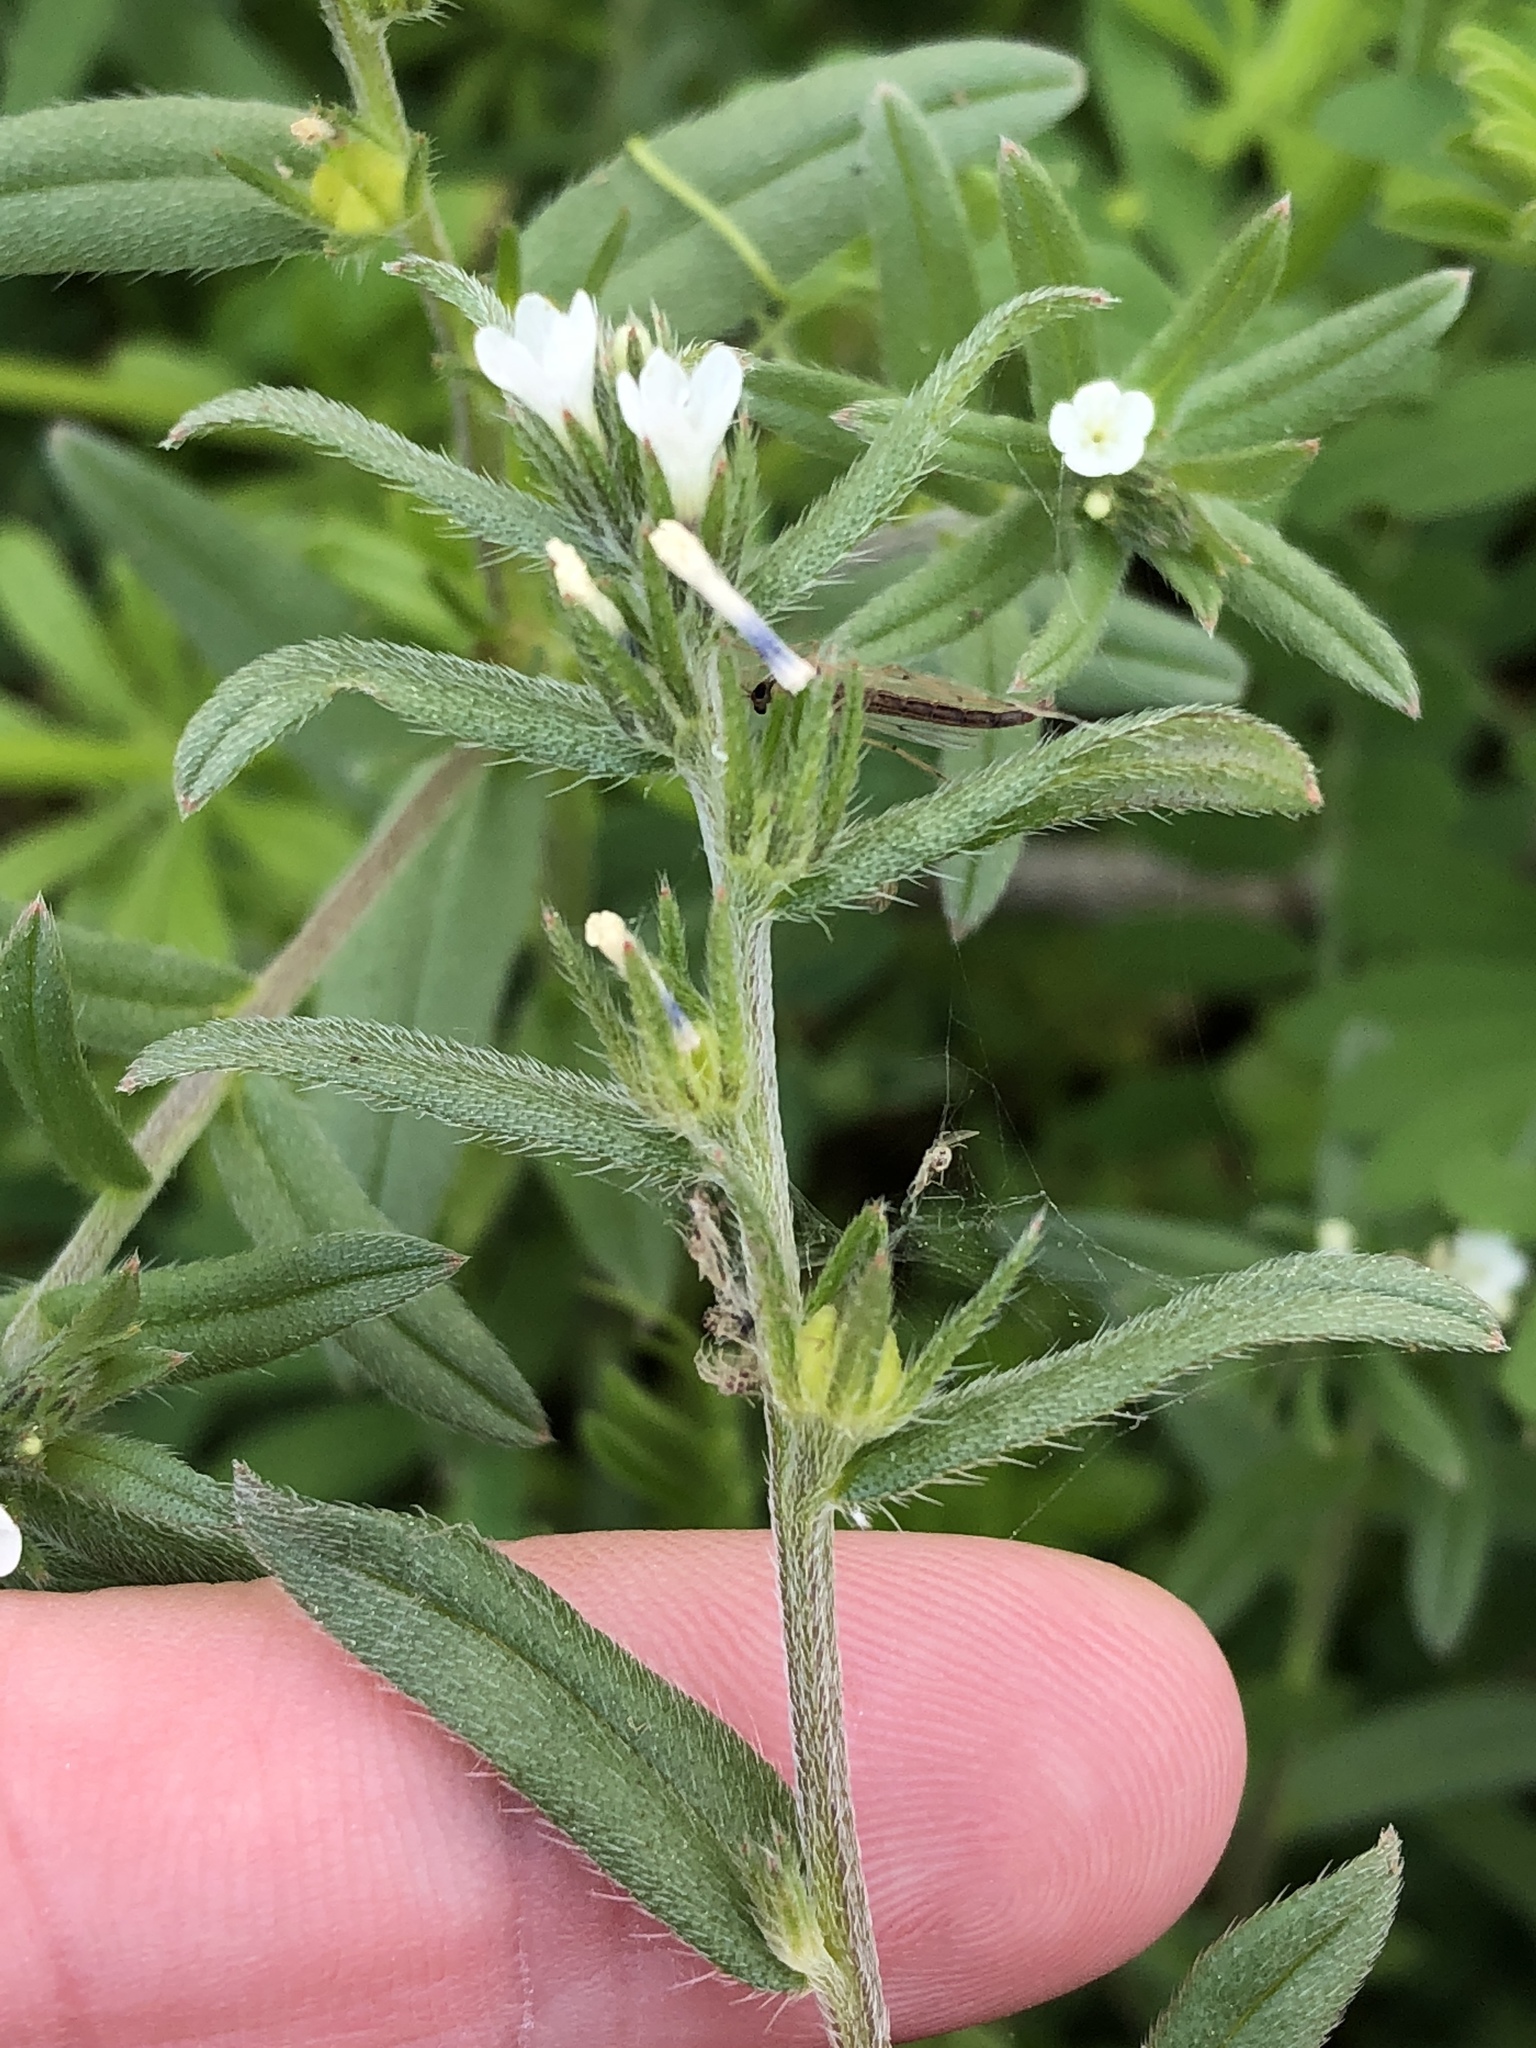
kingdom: Plantae
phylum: Tracheophyta
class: Magnoliopsida
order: Boraginales
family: Boraginaceae
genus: Buglossoides
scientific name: Buglossoides arvensis
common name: Corn gromwell
